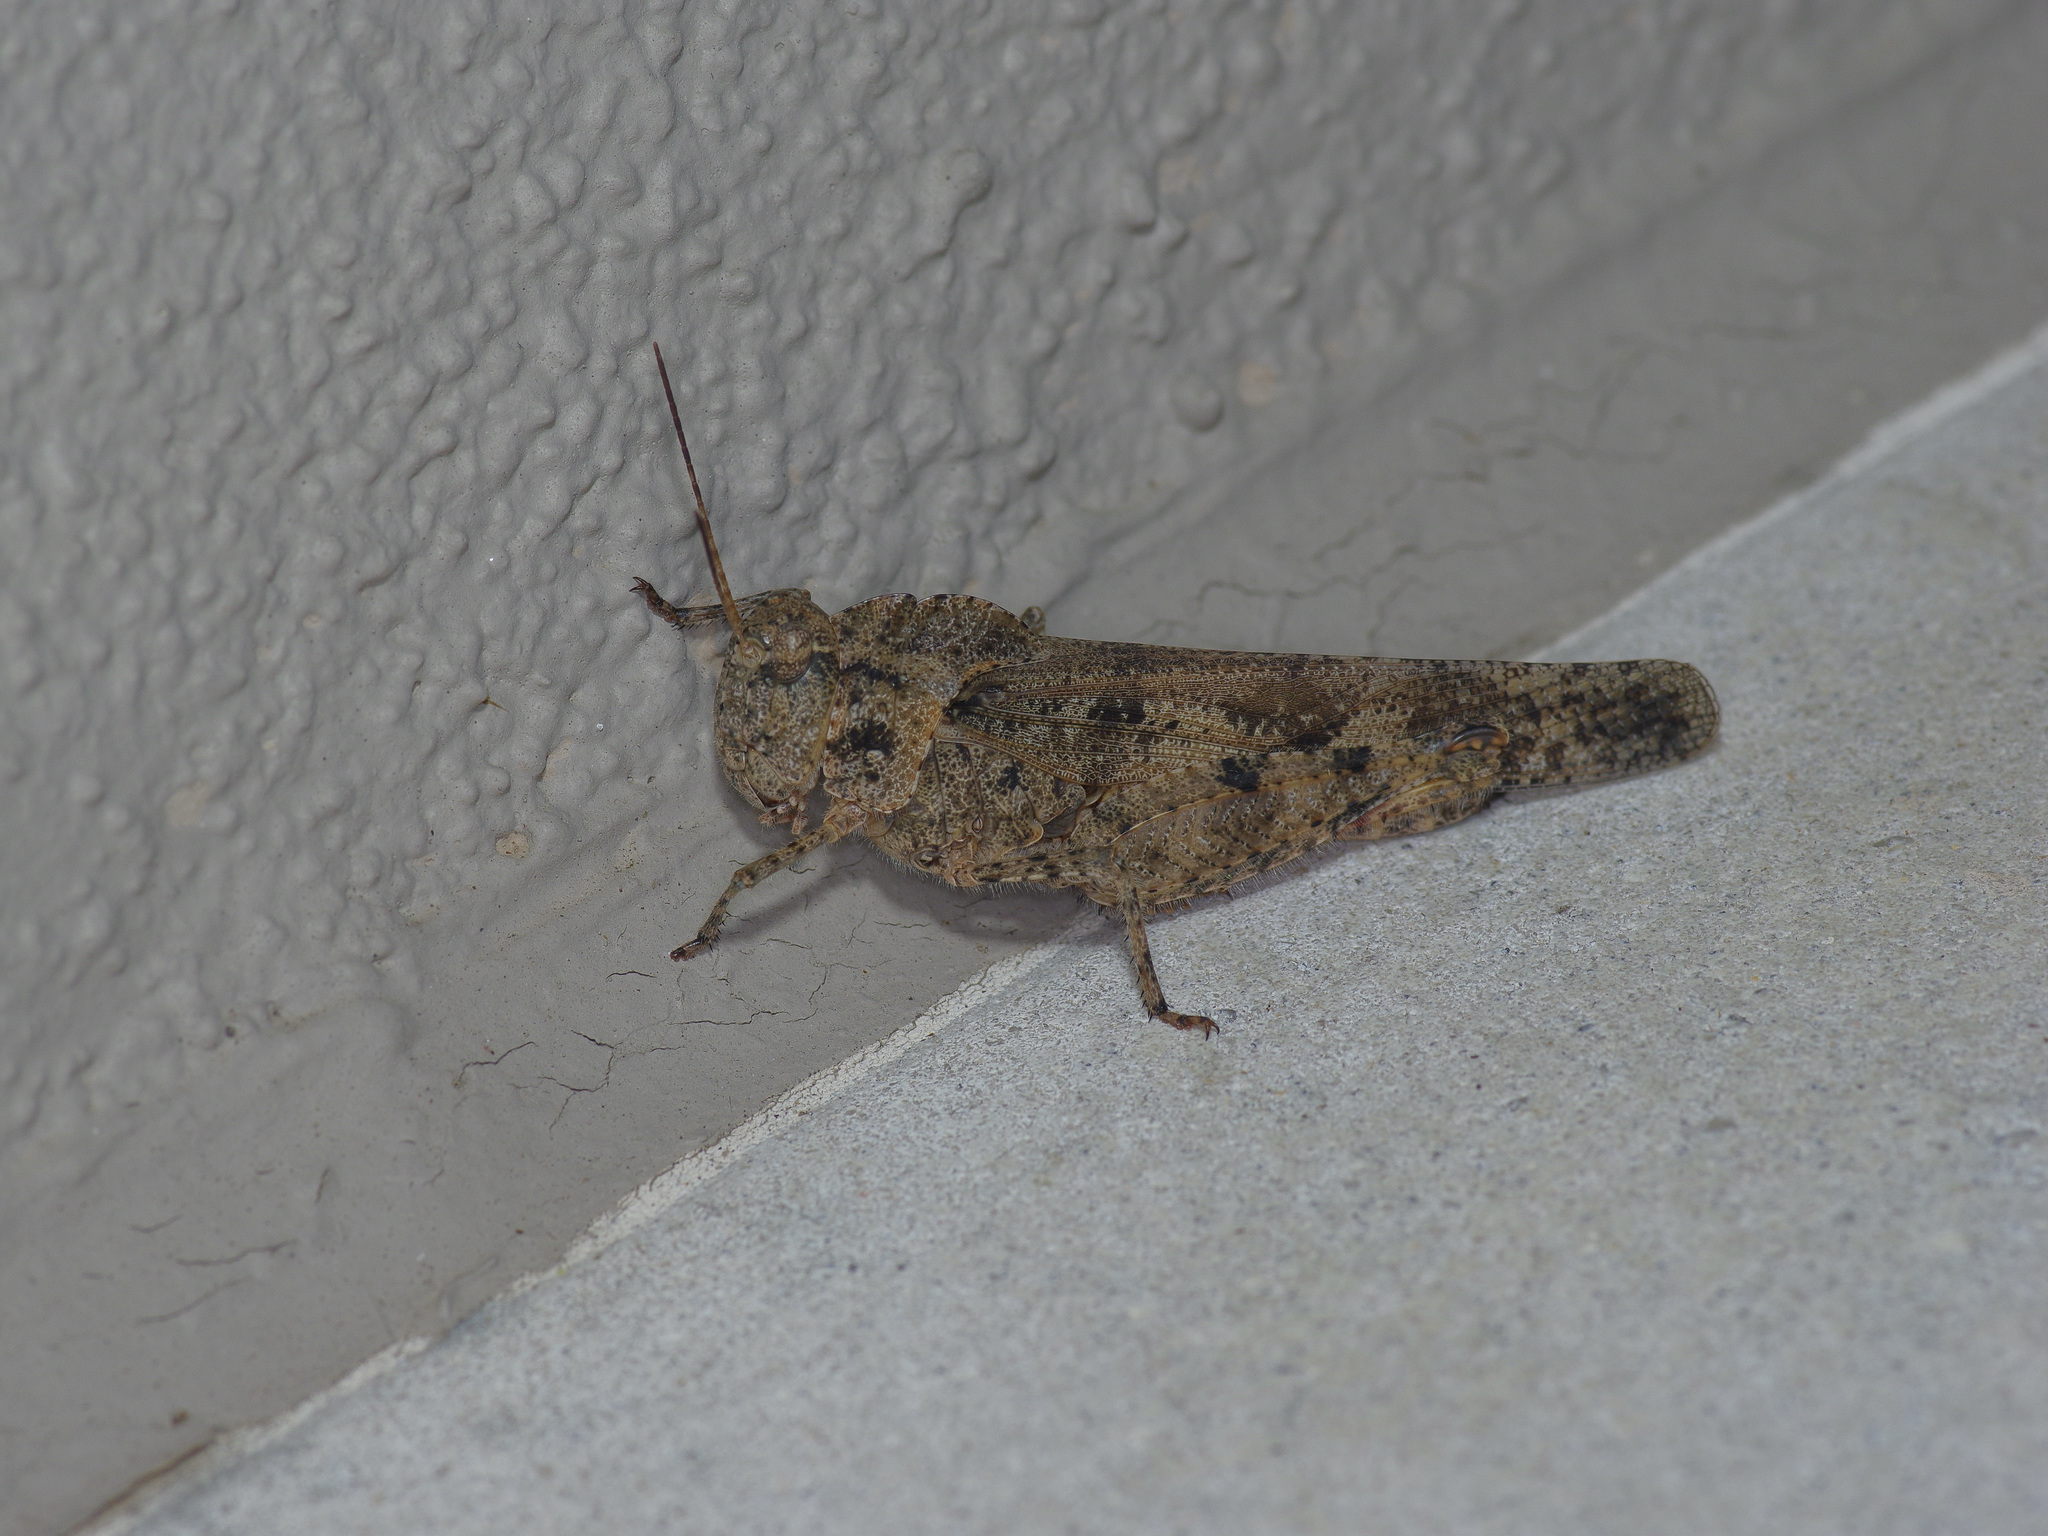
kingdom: Animalia
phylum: Arthropoda
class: Insecta
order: Orthoptera
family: Acrididae
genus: Spharagemon
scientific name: Spharagemon cristatum
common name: Ridgeback sand grasshopper
